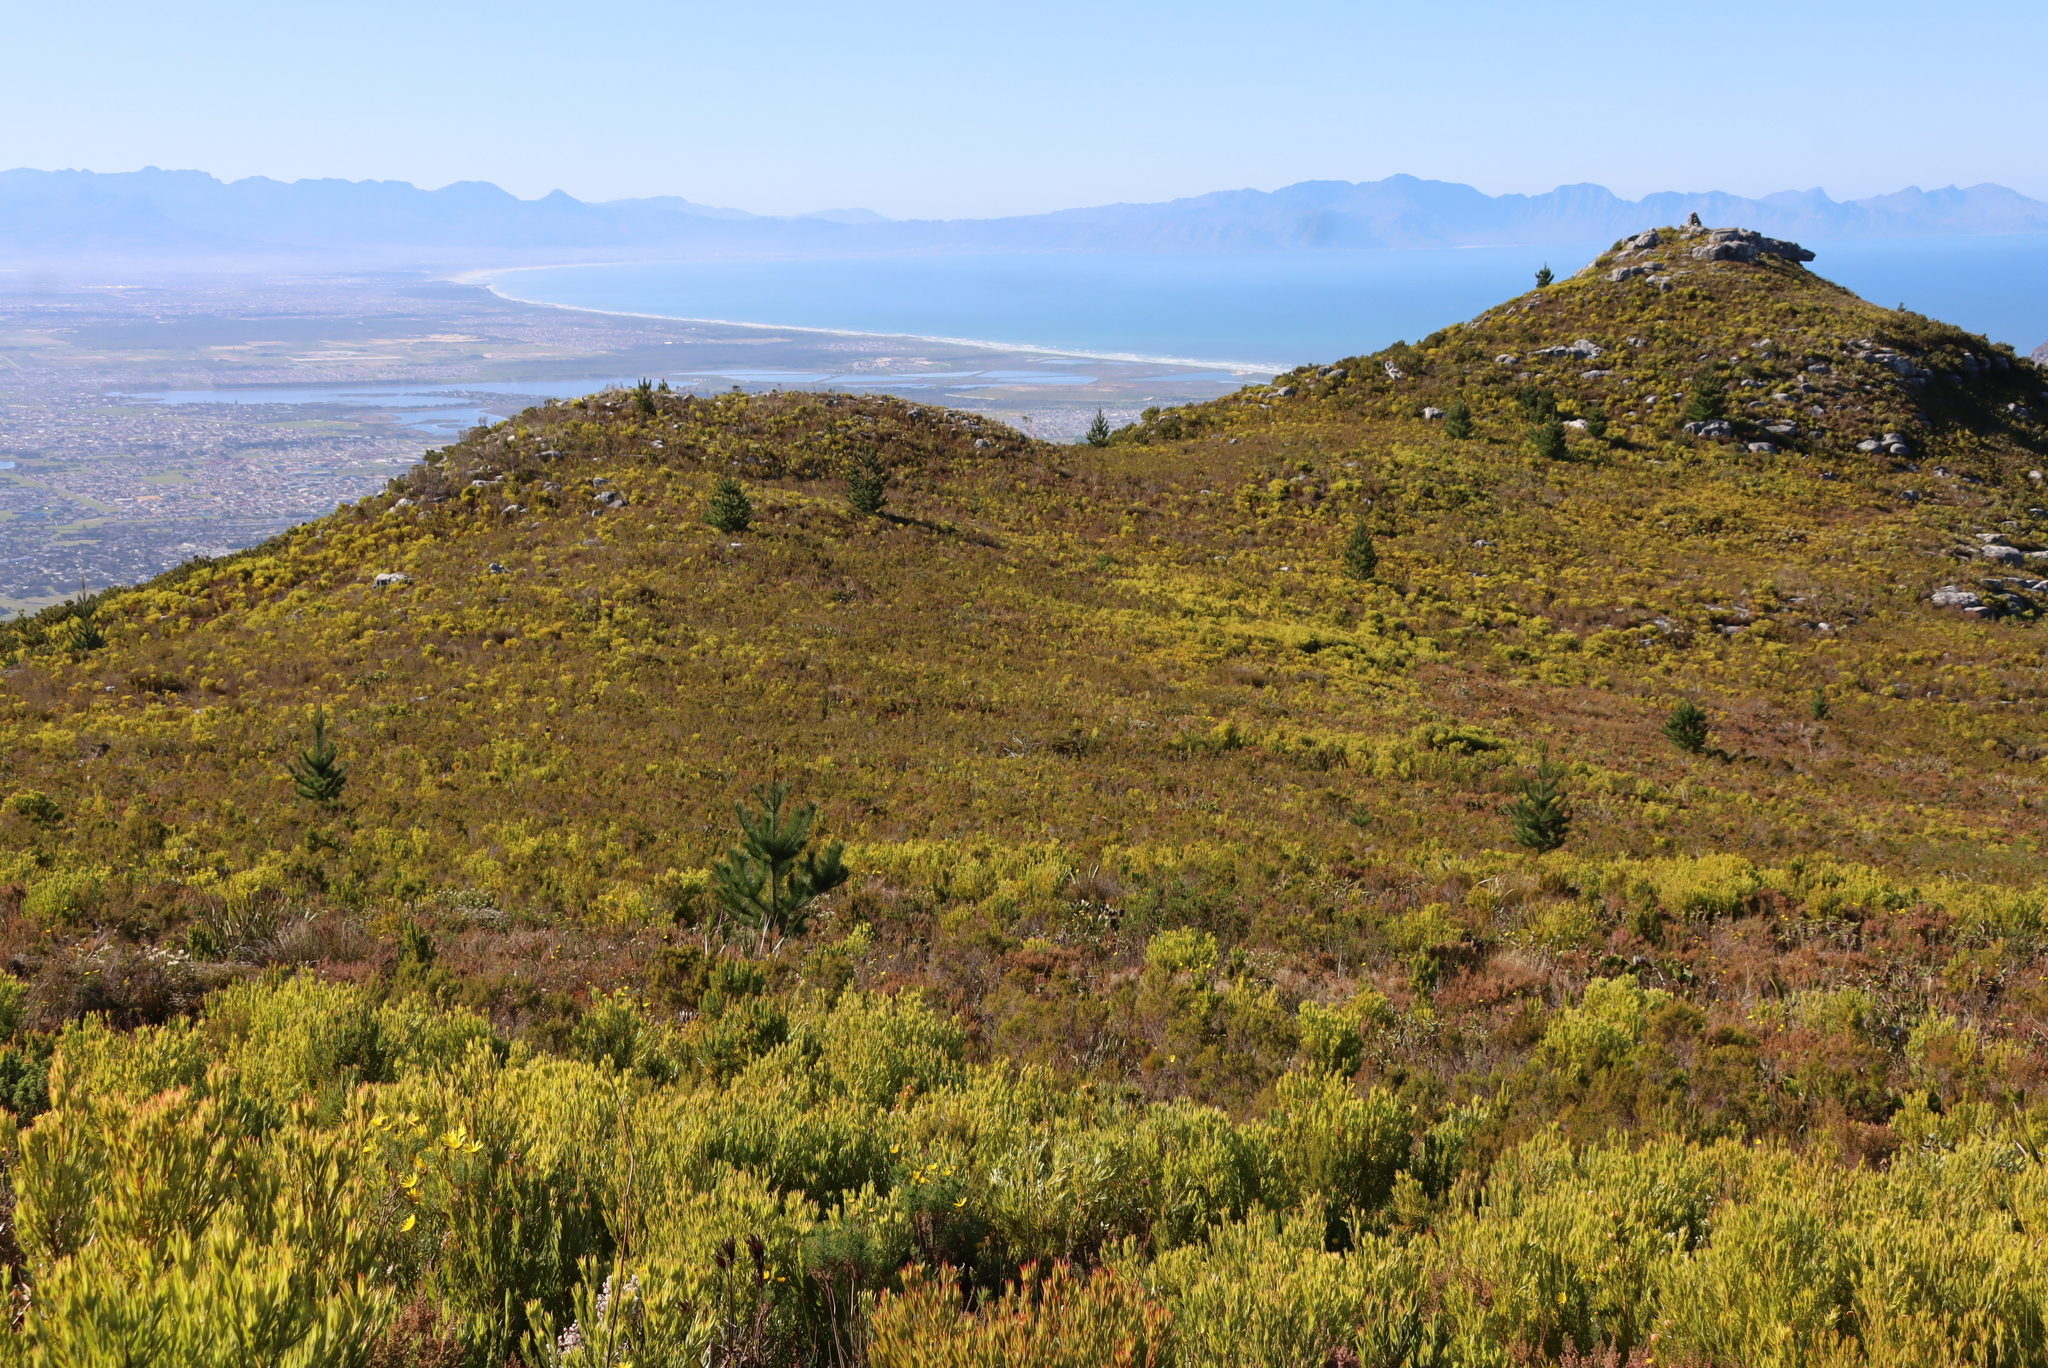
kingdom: Plantae
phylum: Tracheophyta
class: Pinopsida
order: Pinales
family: Pinaceae
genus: Pinus
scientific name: Pinus radiata
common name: Monterey pine
